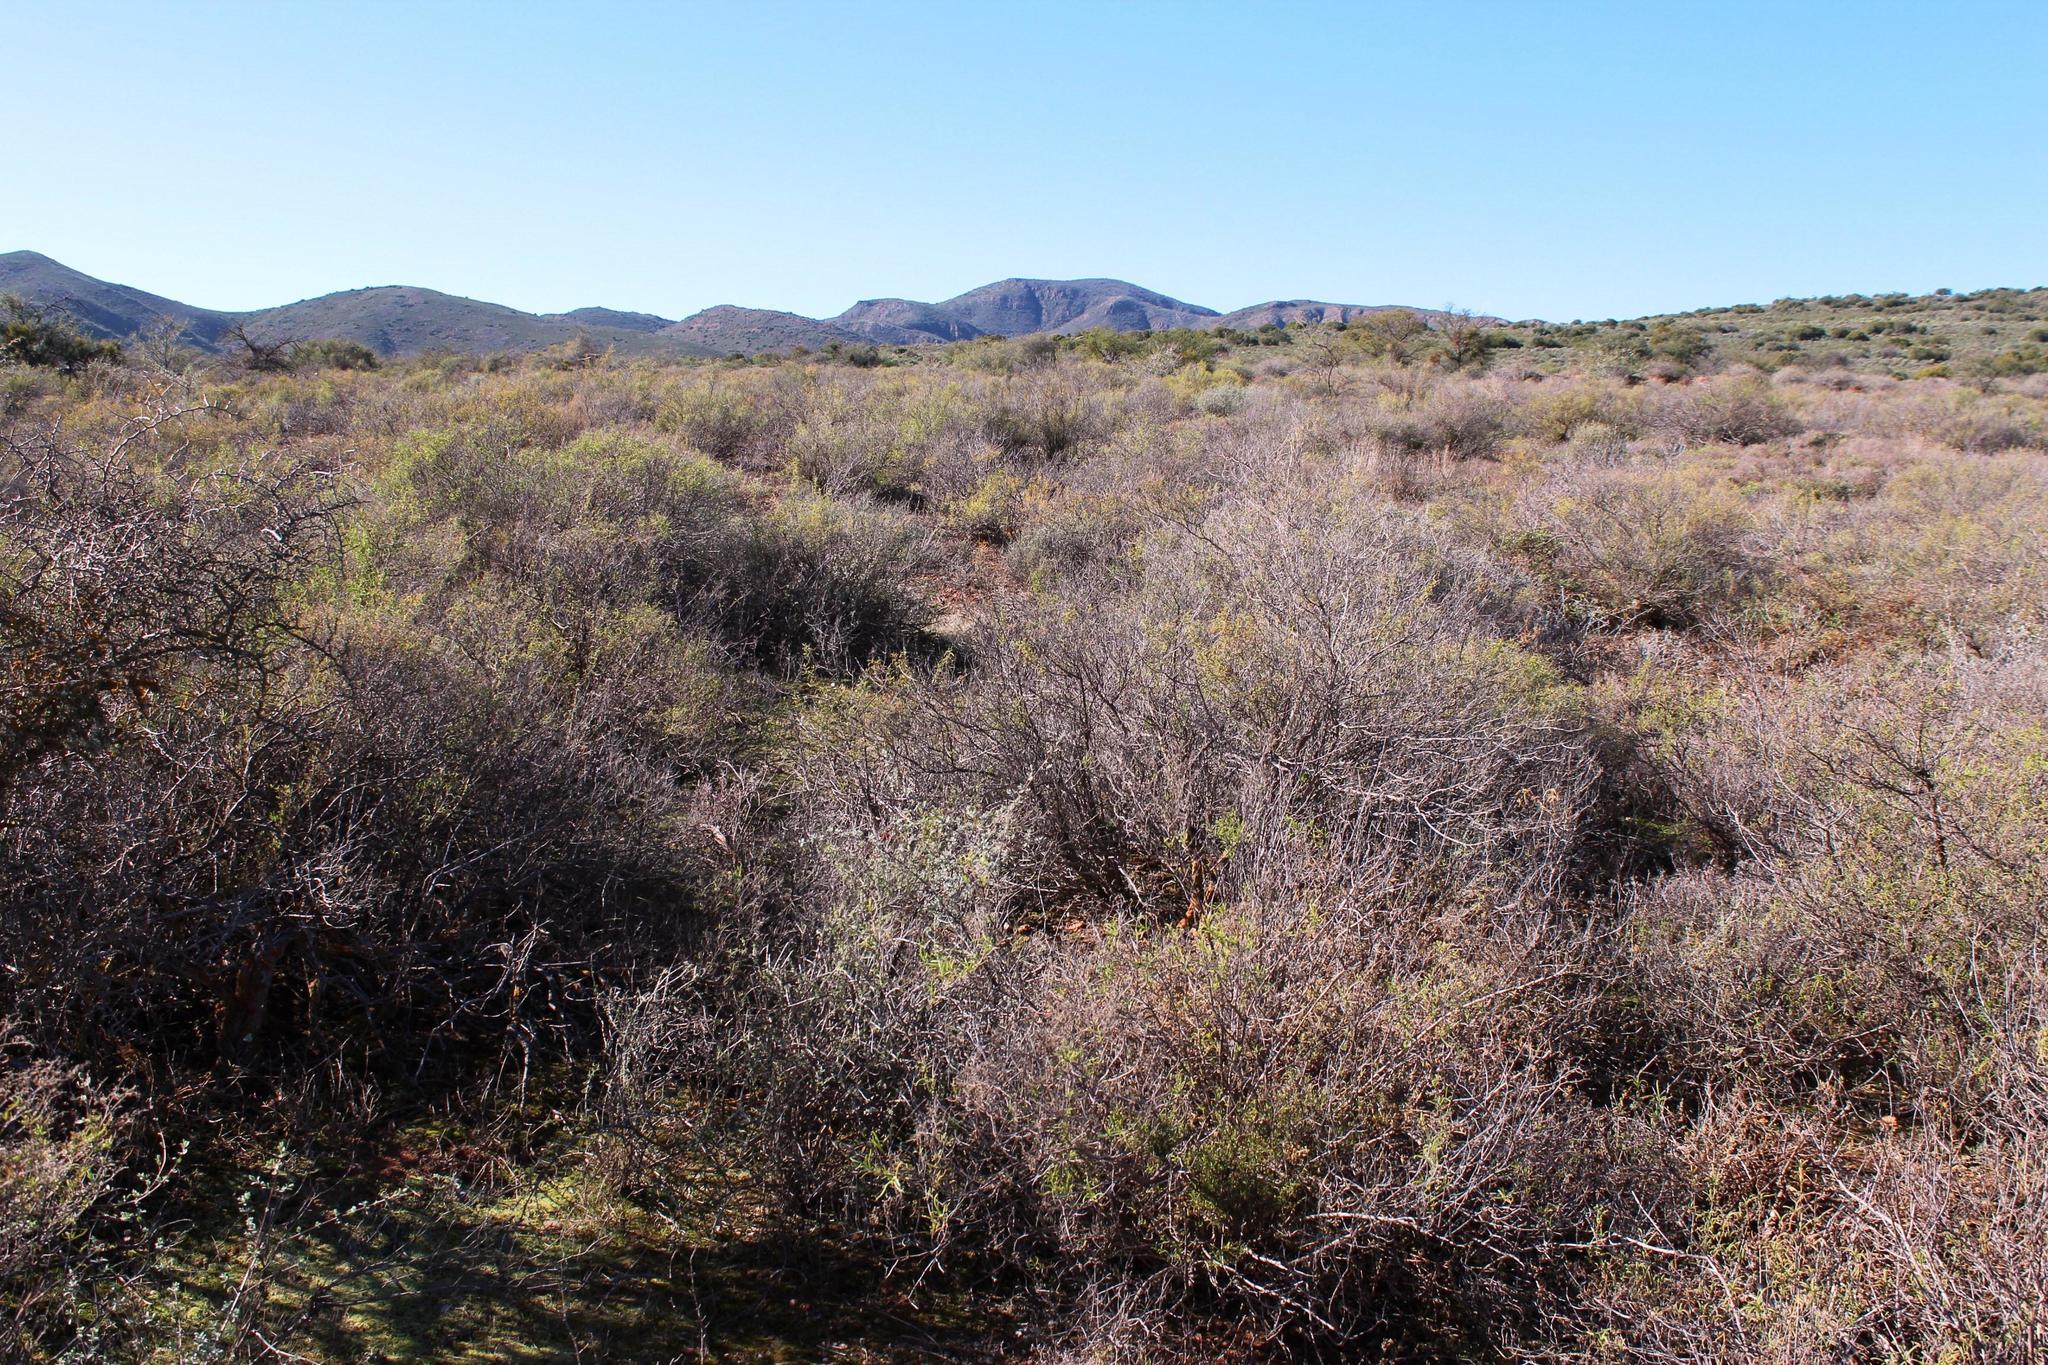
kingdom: Plantae
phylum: Tracheophyta
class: Magnoliopsida
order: Caryophyllales
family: Aizoaceae
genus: Aizoon
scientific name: Aizoon africanum
